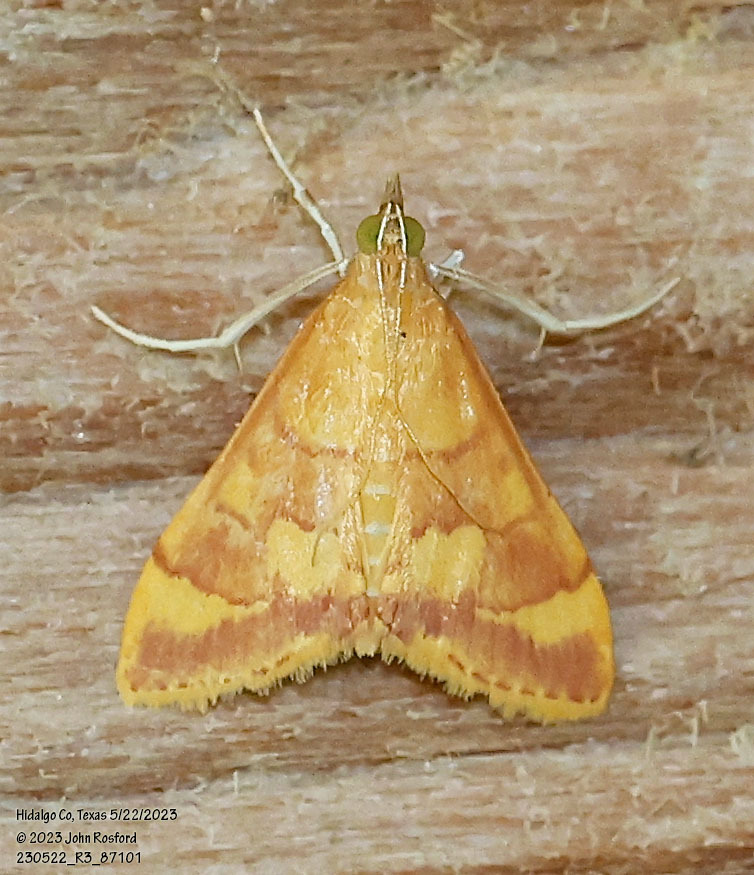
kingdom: Animalia
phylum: Arthropoda
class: Insecta
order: Lepidoptera
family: Crambidae
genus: Pyrausta
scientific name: Pyrausta pseudonythesalis
